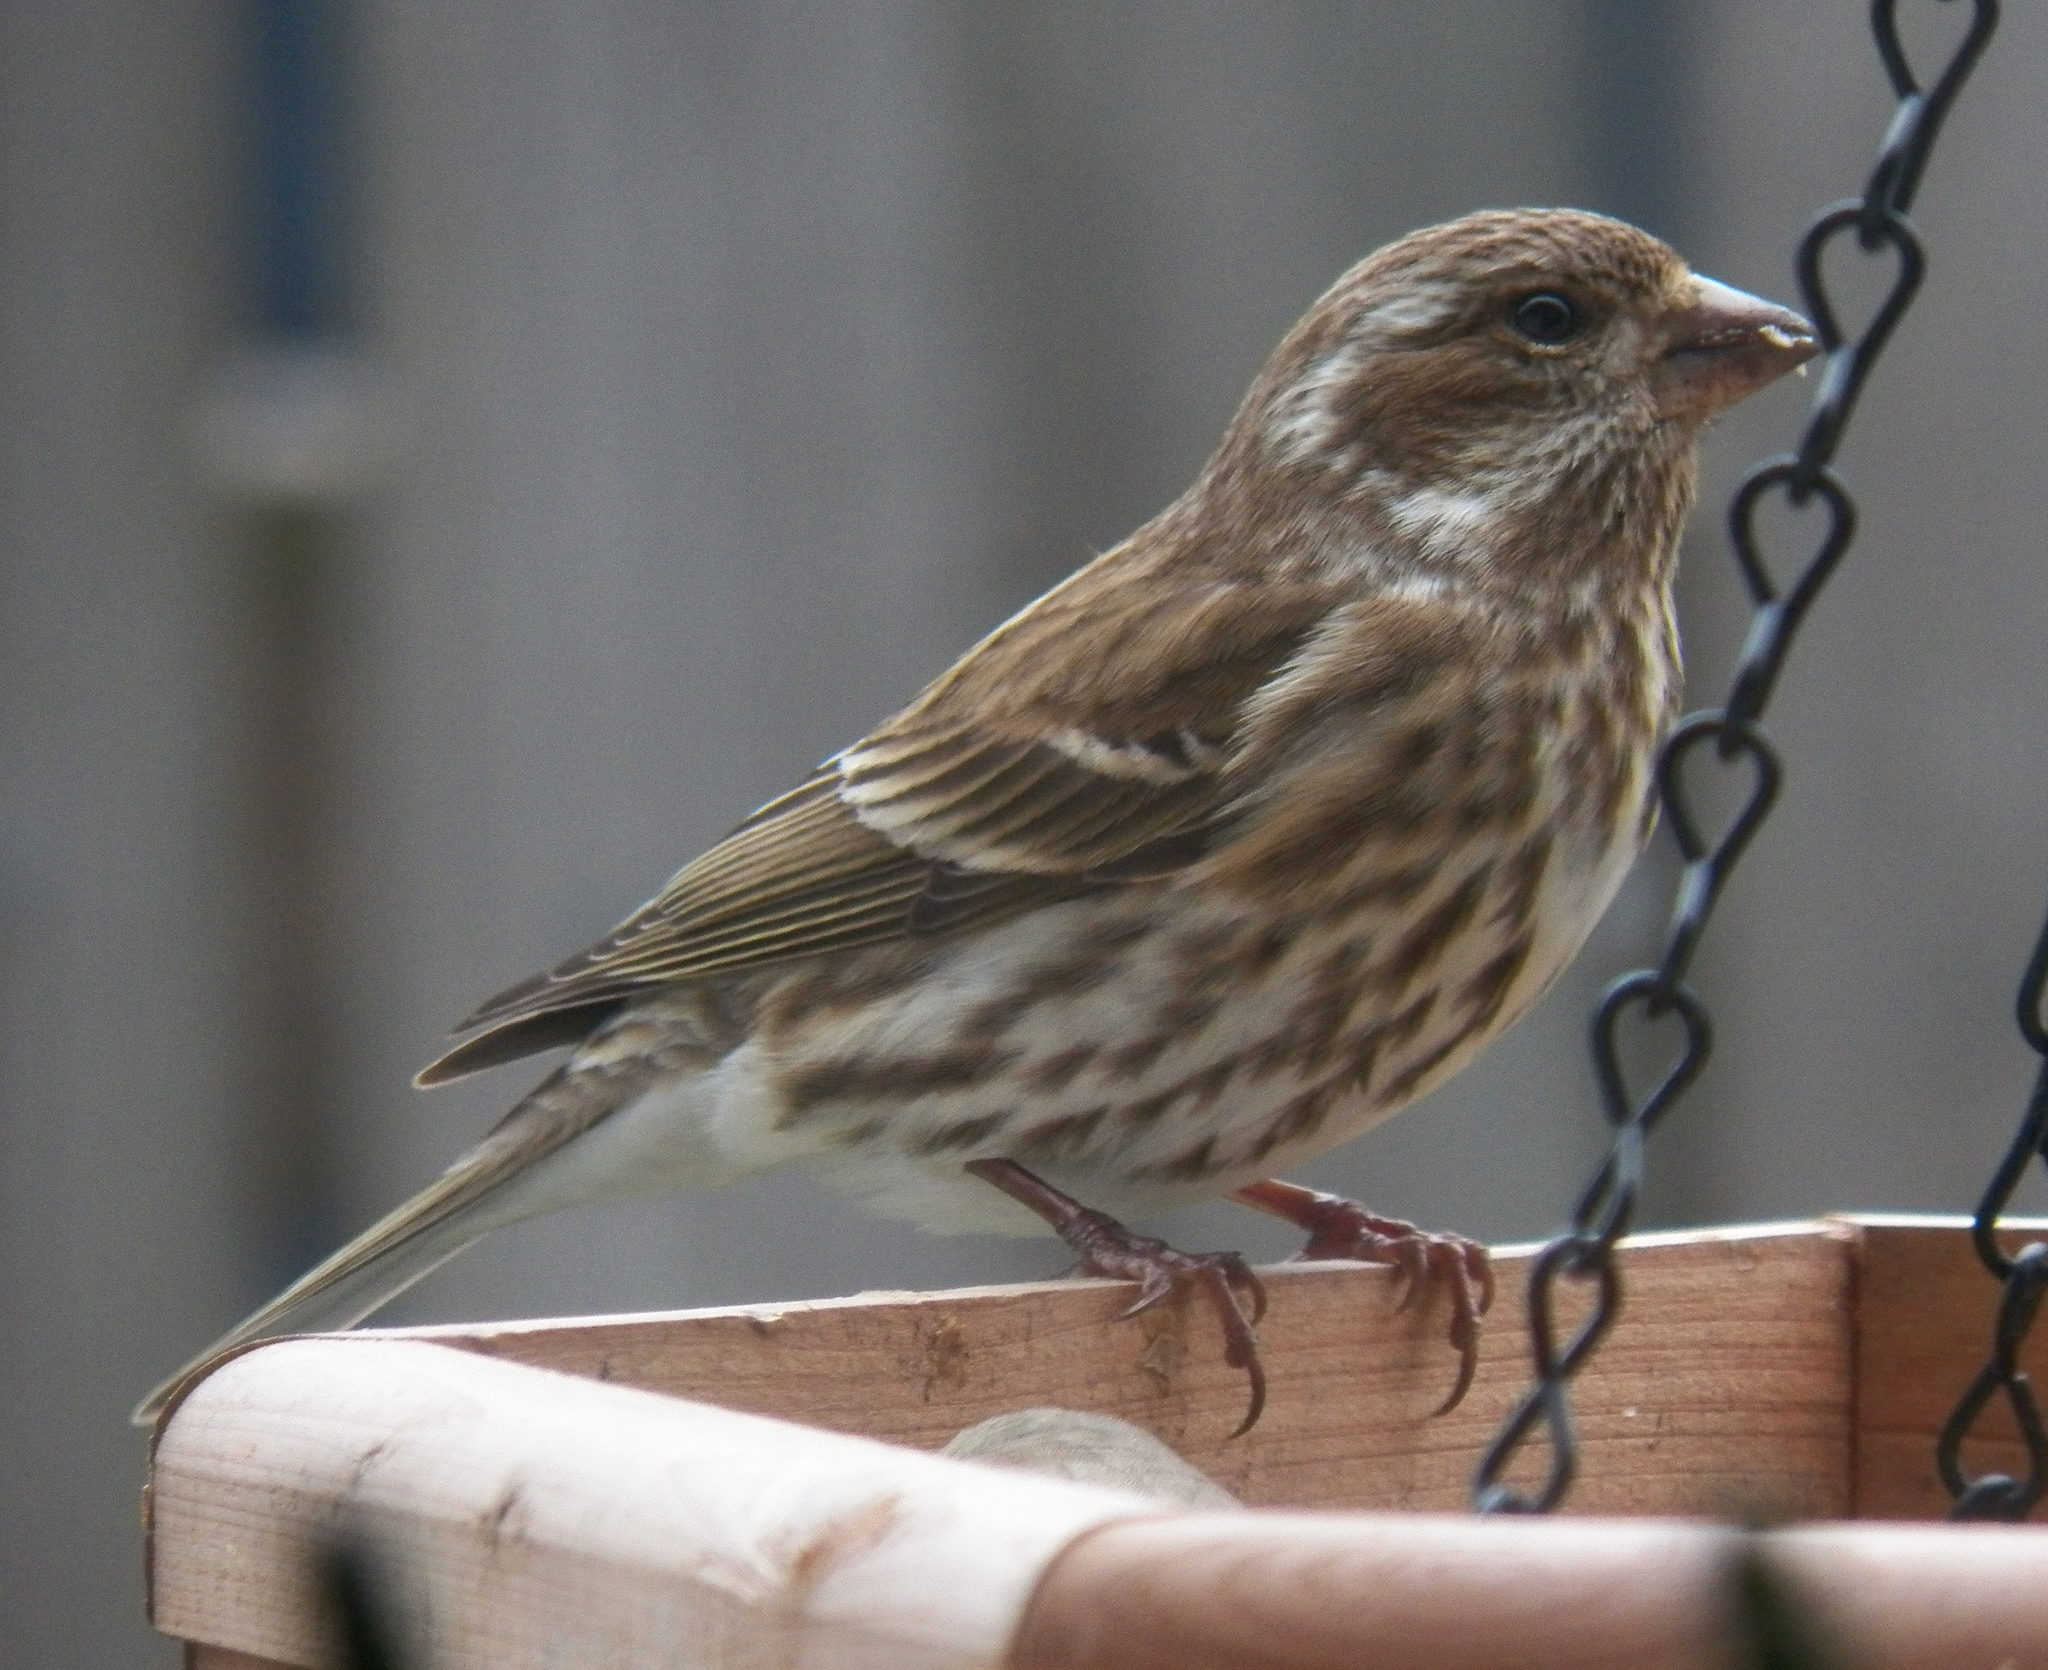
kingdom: Animalia
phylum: Chordata
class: Aves
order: Passeriformes
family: Fringillidae
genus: Haemorhous
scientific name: Haemorhous purpureus
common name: Purple finch
